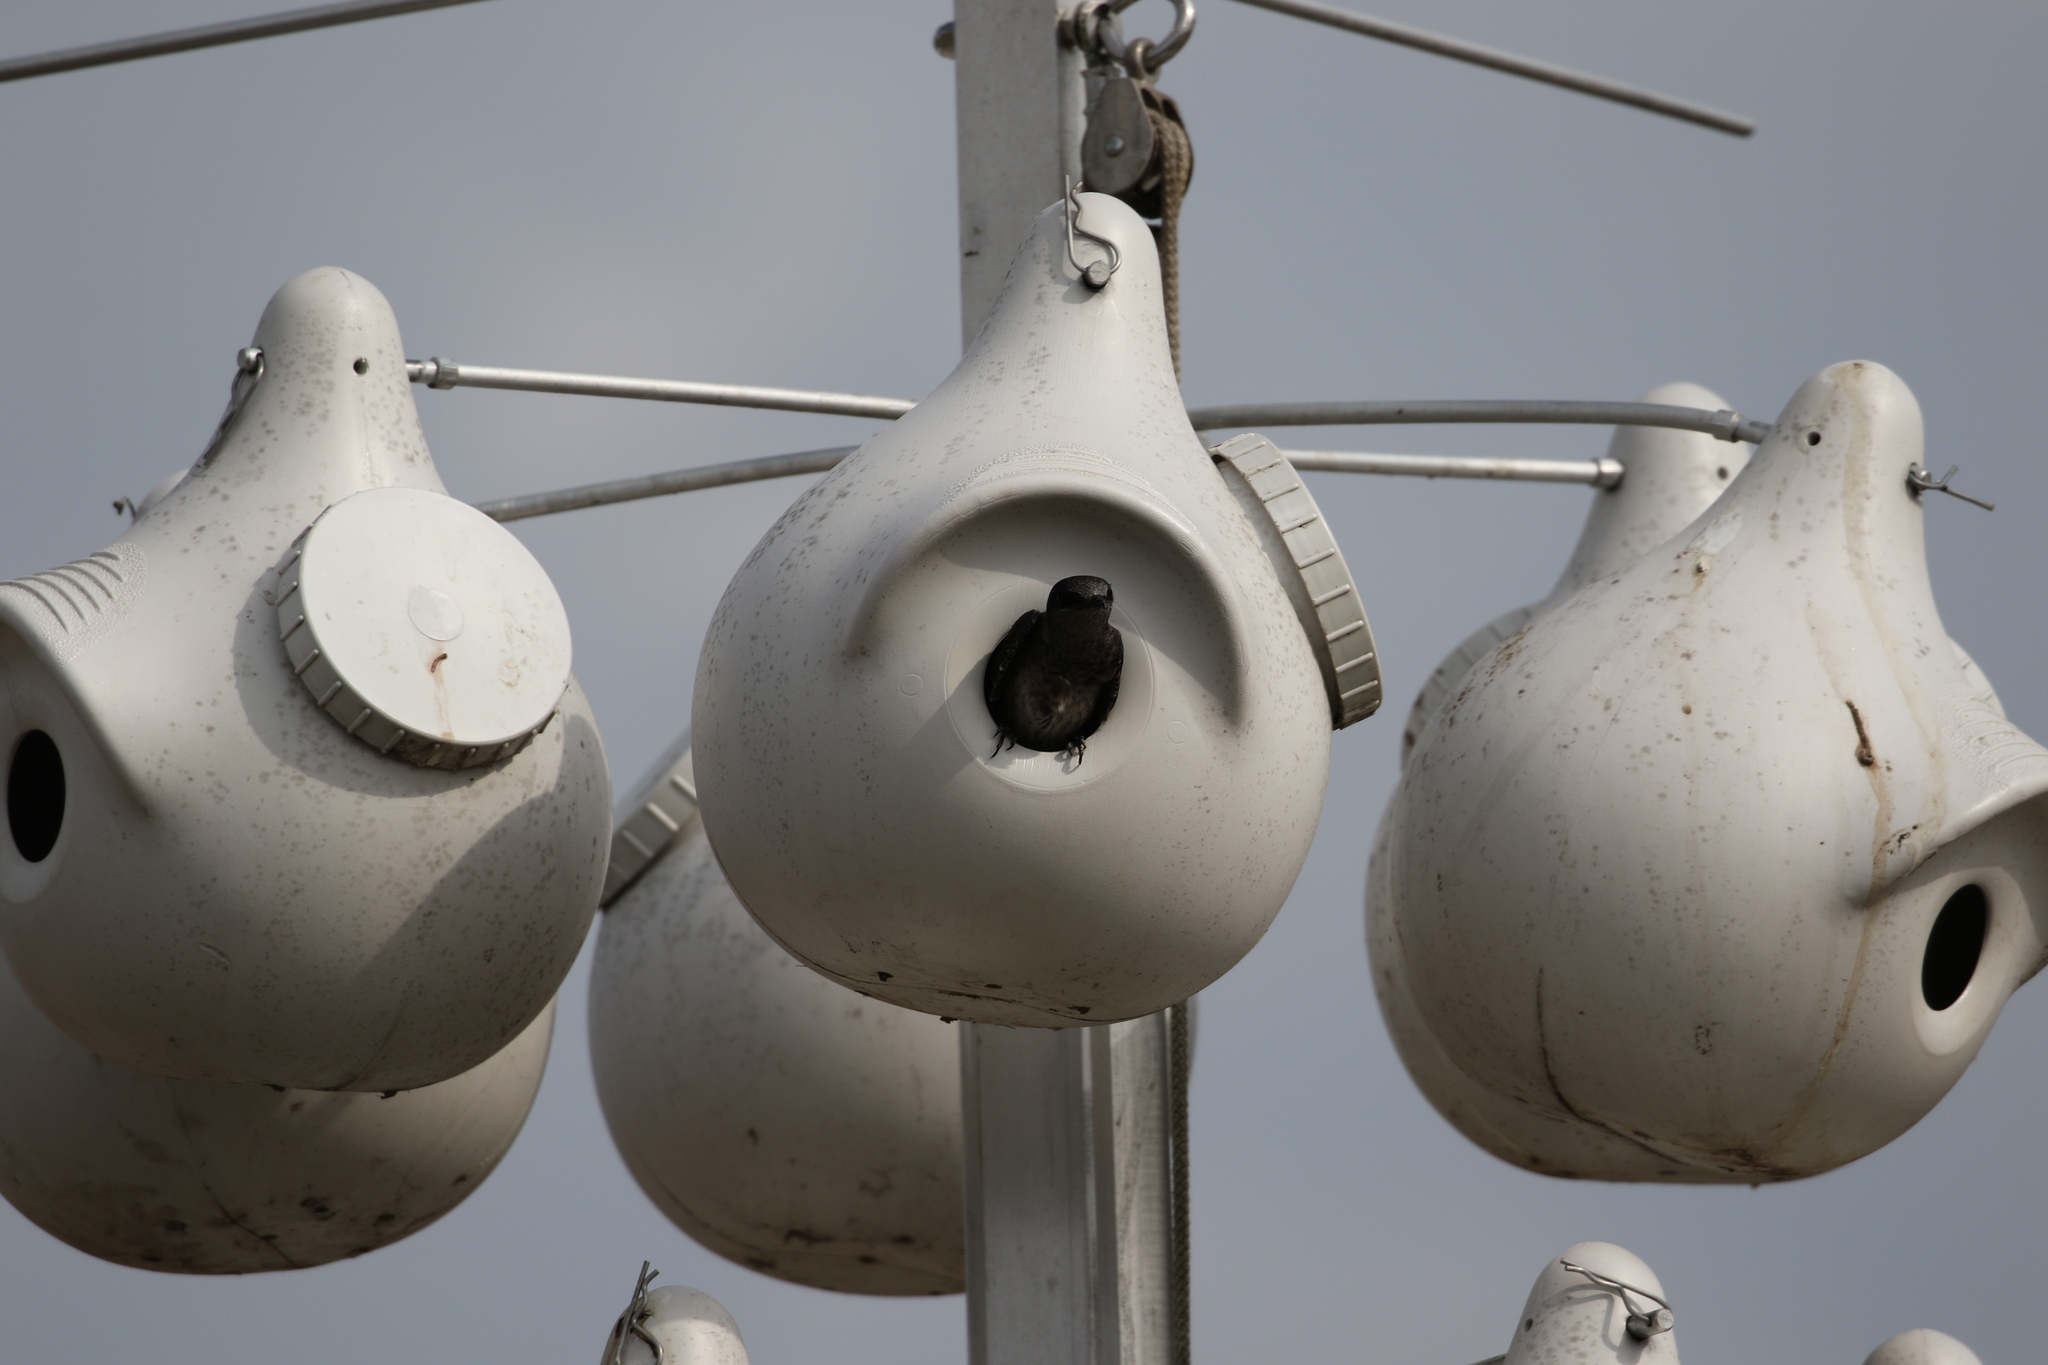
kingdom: Animalia
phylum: Chordata
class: Aves
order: Passeriformes
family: Hirundinidae
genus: Progne
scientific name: Progne subis
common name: Purple martin
